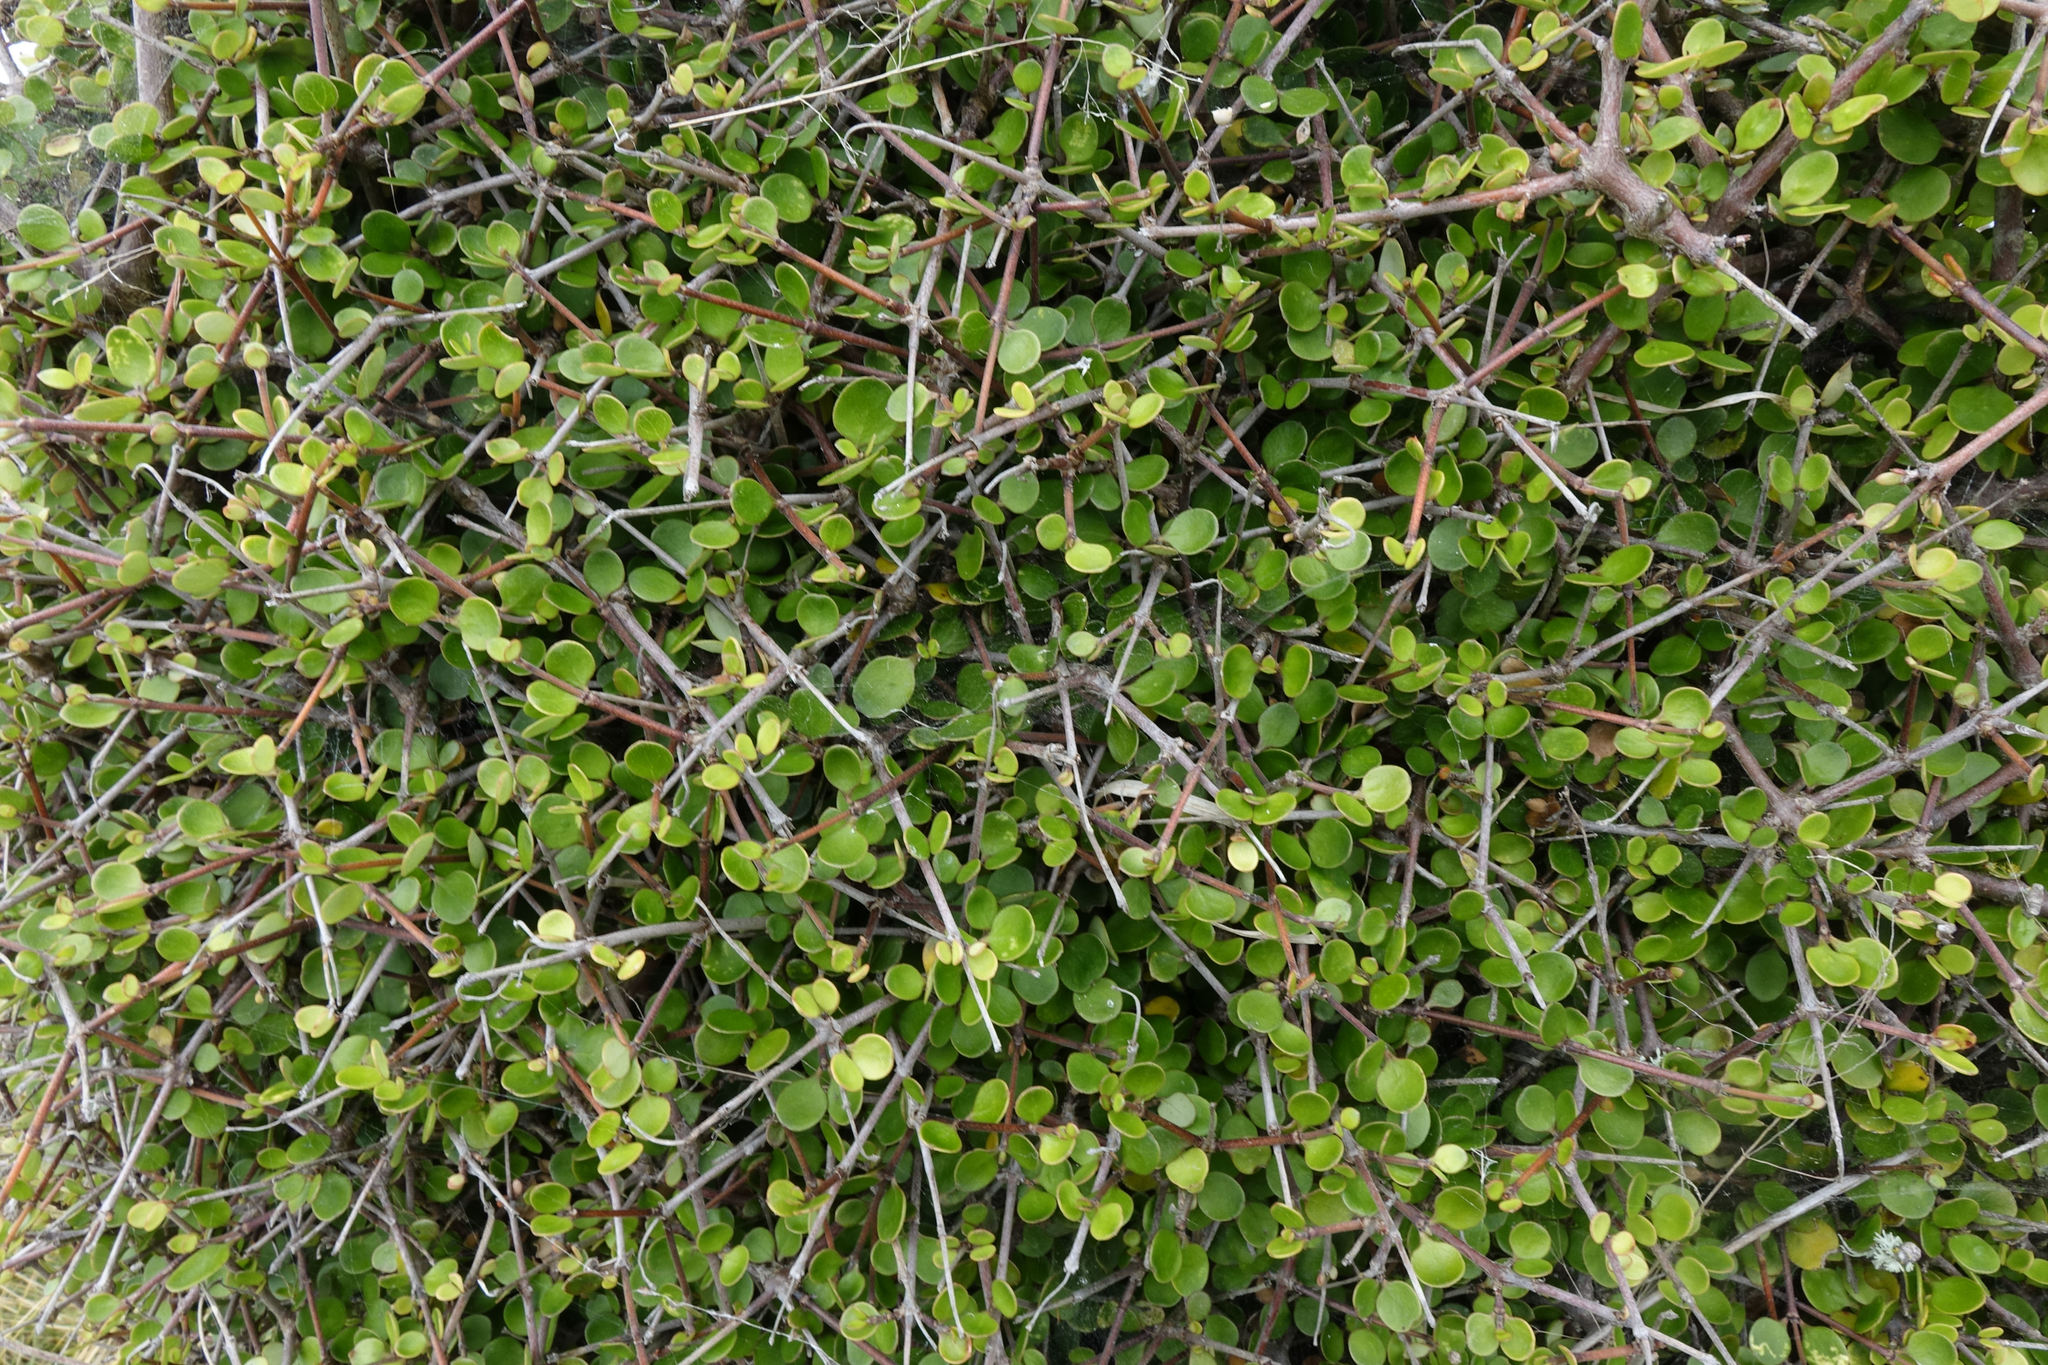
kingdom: Plantae
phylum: Tracheophyta
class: Magnoliopsida
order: Gentianales
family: Rubiaceae
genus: Coprosma
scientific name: Coprosma crassifolia
